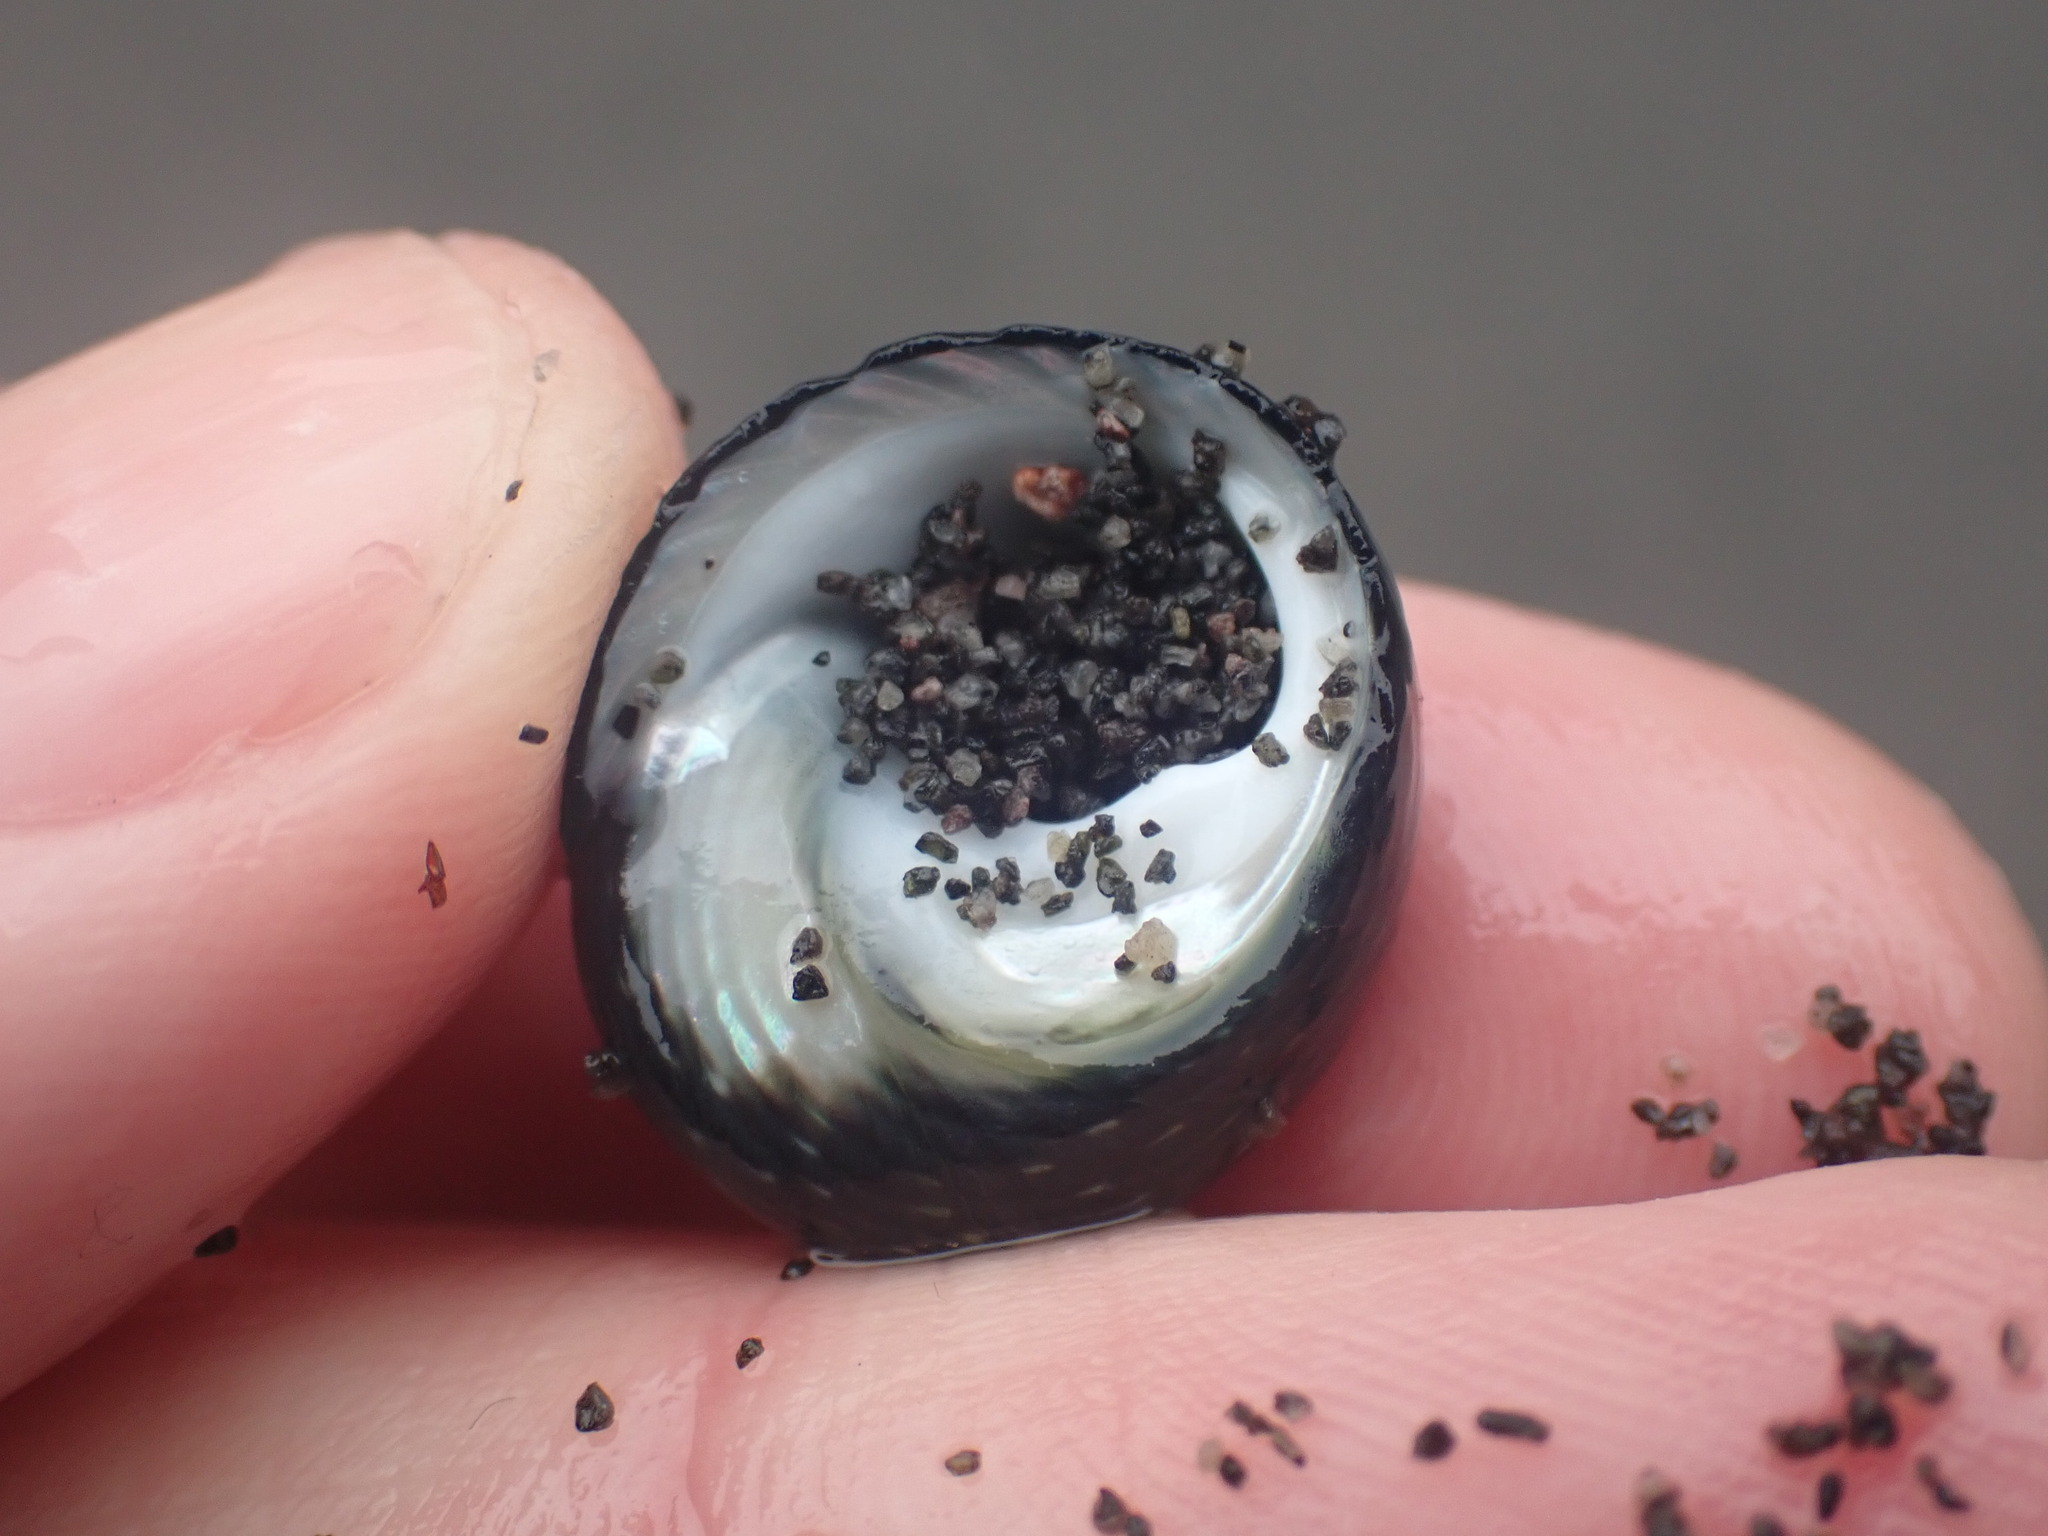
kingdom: Animalia
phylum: Mollusca
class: Gastropoda
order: Trochida
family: Trochidae
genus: Diloma
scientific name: Diloma zelandicum
